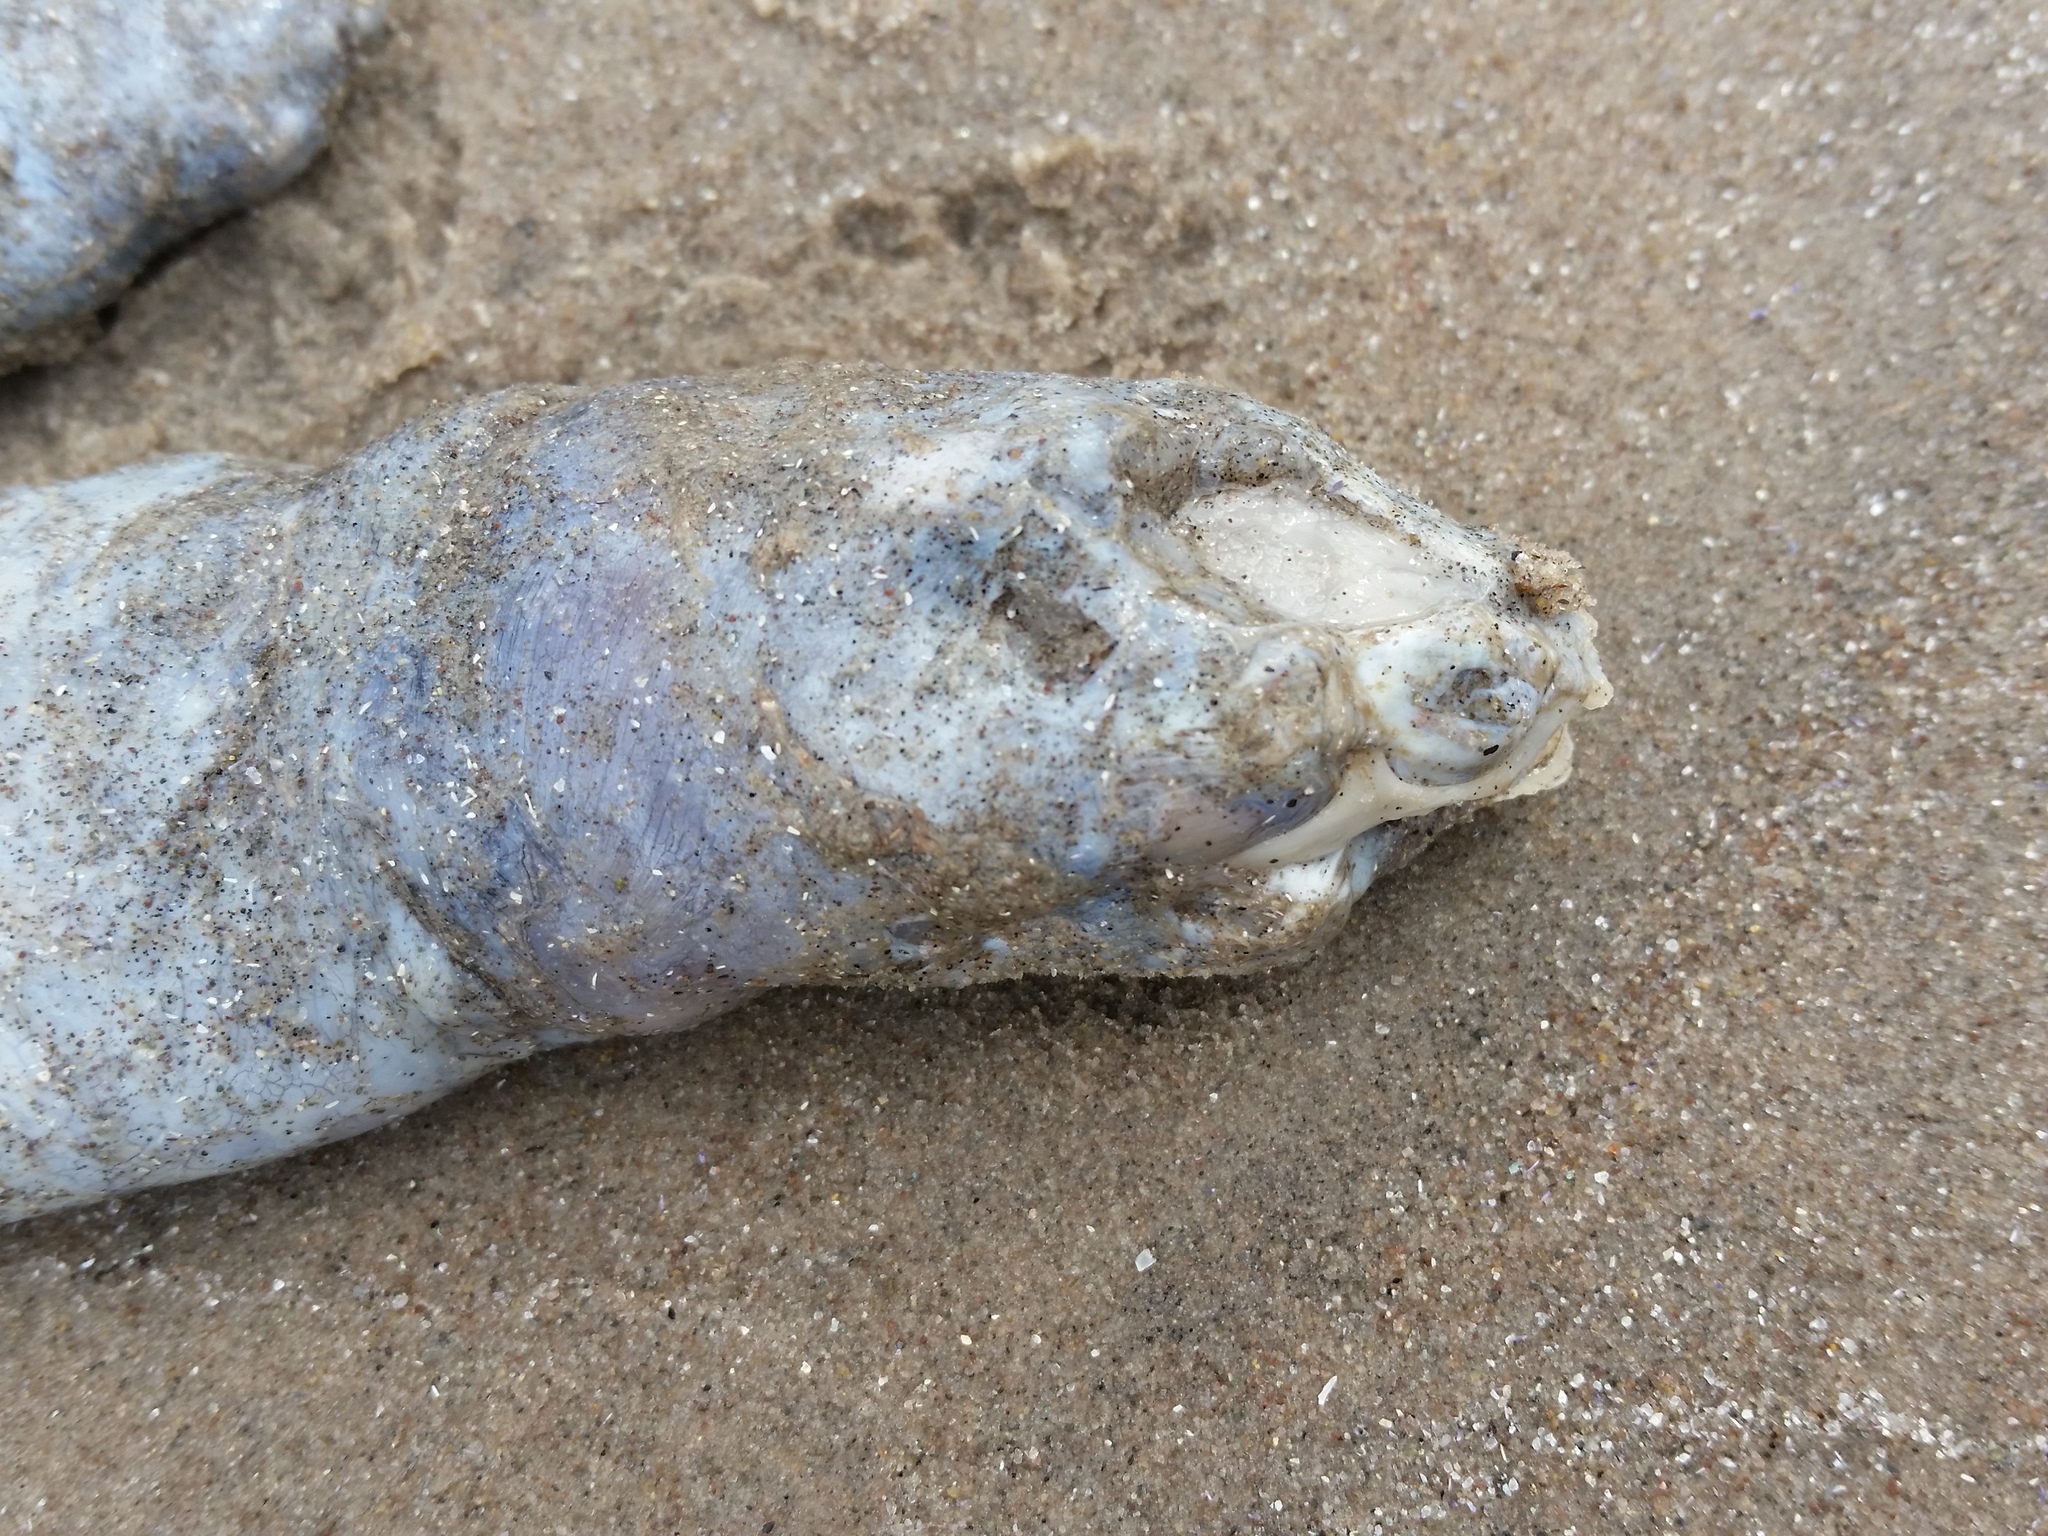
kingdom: Animalia
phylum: Chordata
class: Testudines
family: Trionychidae
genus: Pelodiscus
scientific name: Pelodiscus sinensis
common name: Chinese softshell turtle
